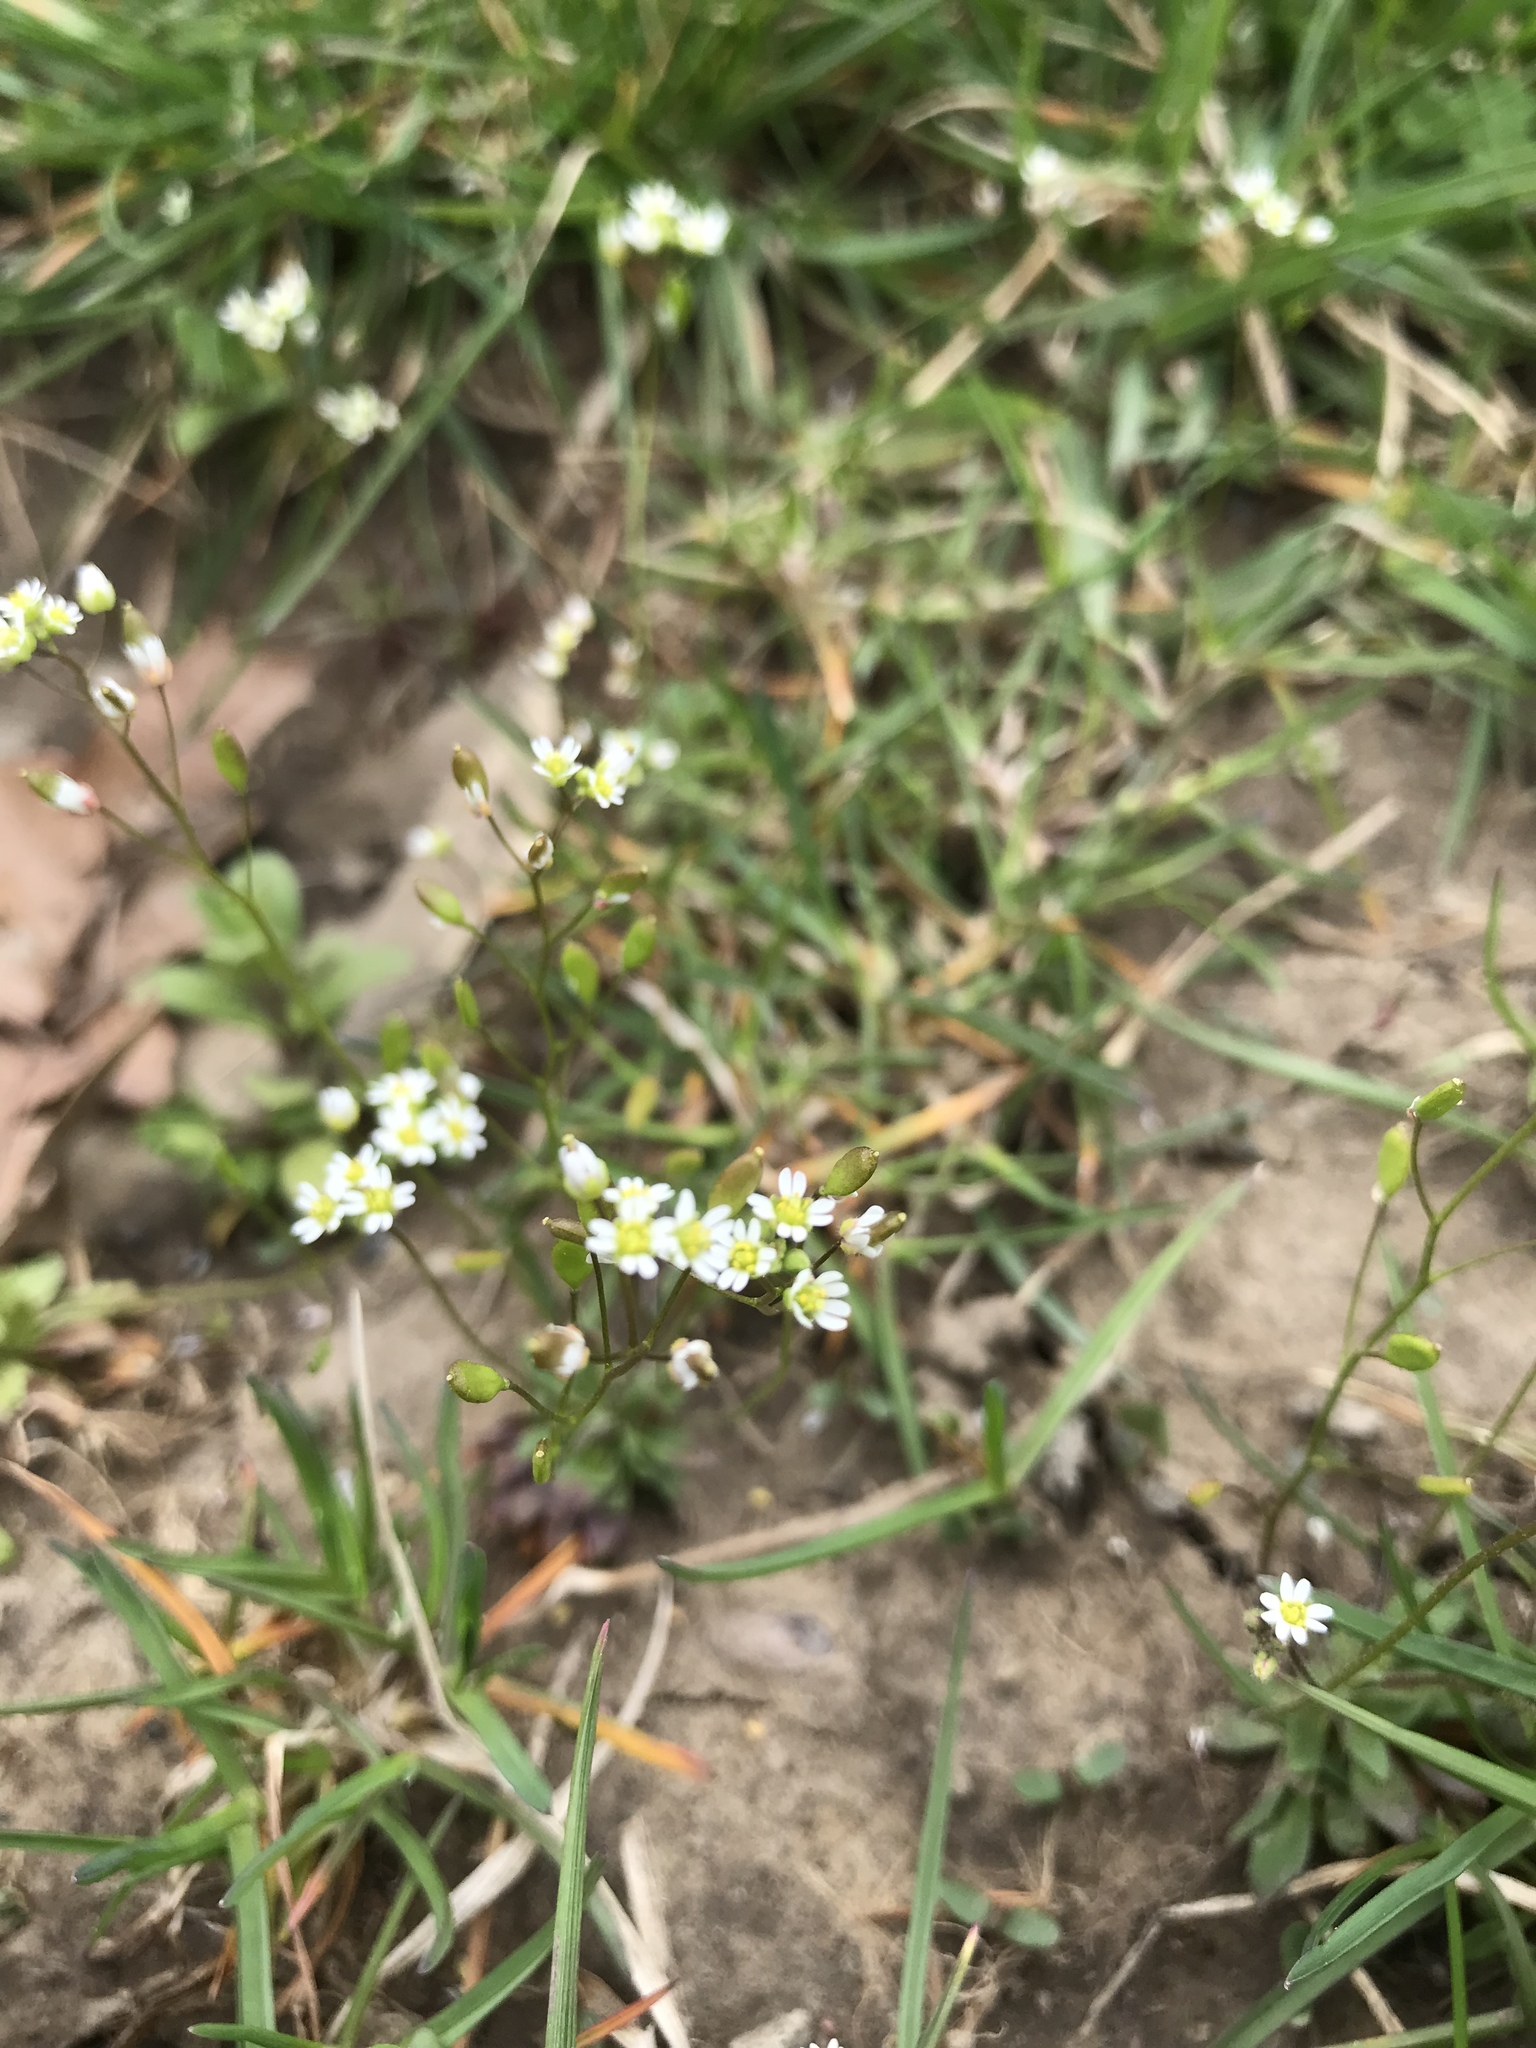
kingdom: Plantae
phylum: Tracheophyta
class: Magnoliopsida
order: Brassicales
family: Brassicaceae
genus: Draba
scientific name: Draba verna
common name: Spring draba
